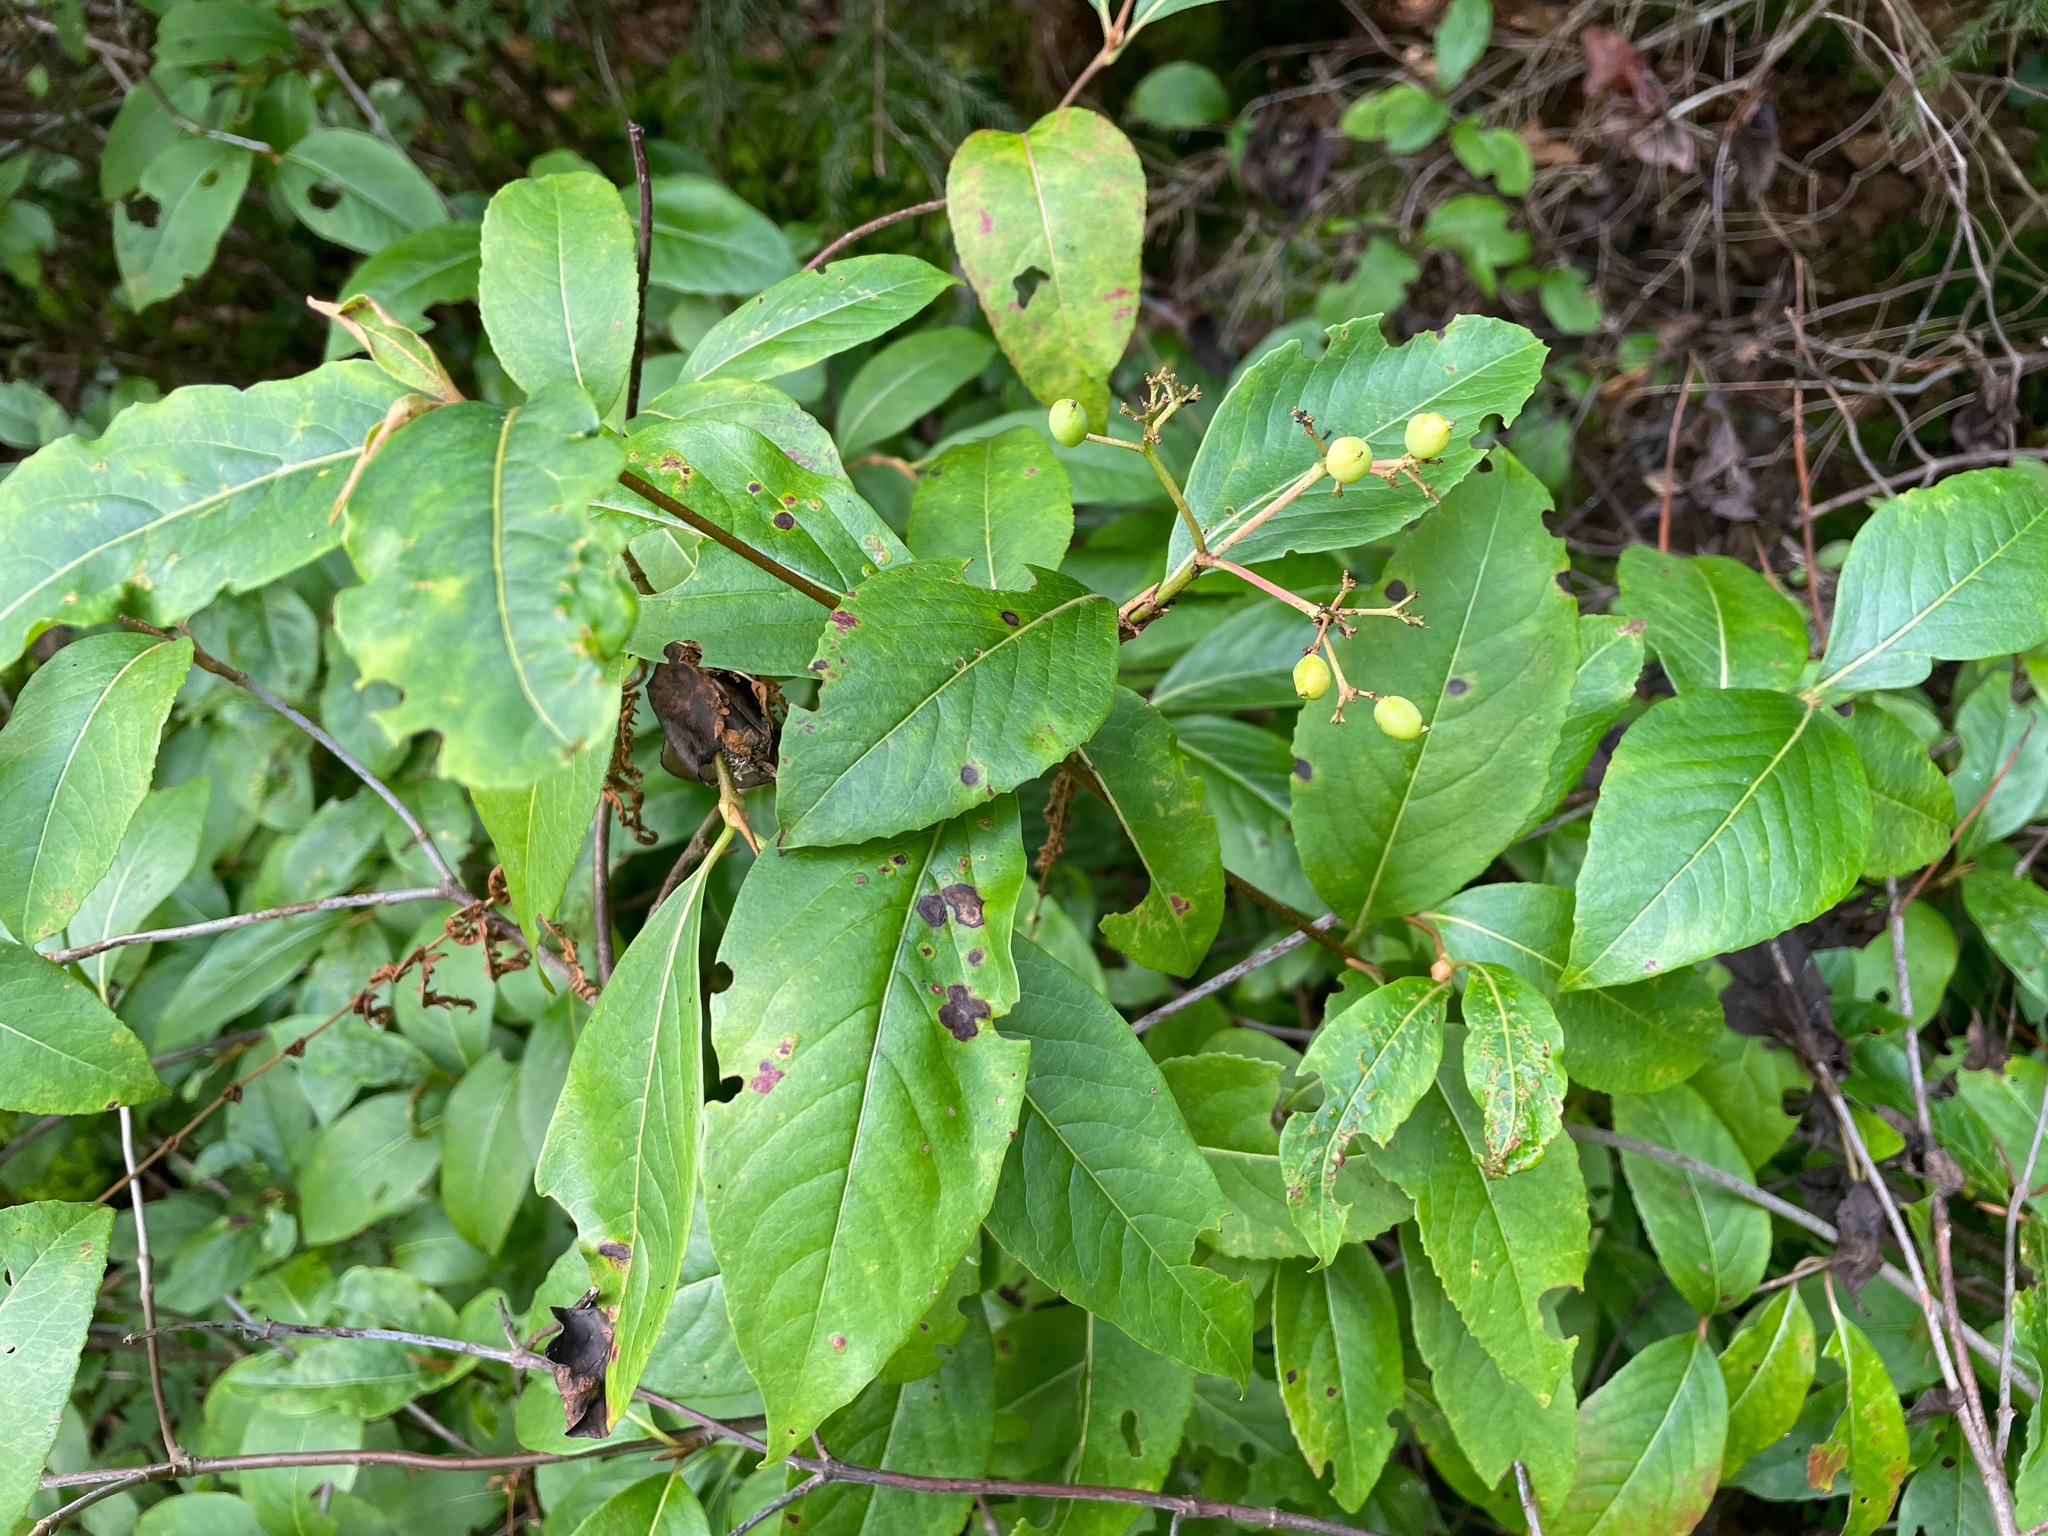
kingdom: Plantae
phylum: Tracheophyta
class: Magnoliopsida
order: Dipsacales
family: Viburnaceae
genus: Viburnum
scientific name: Viburnum cassinoides
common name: Swamp haw
